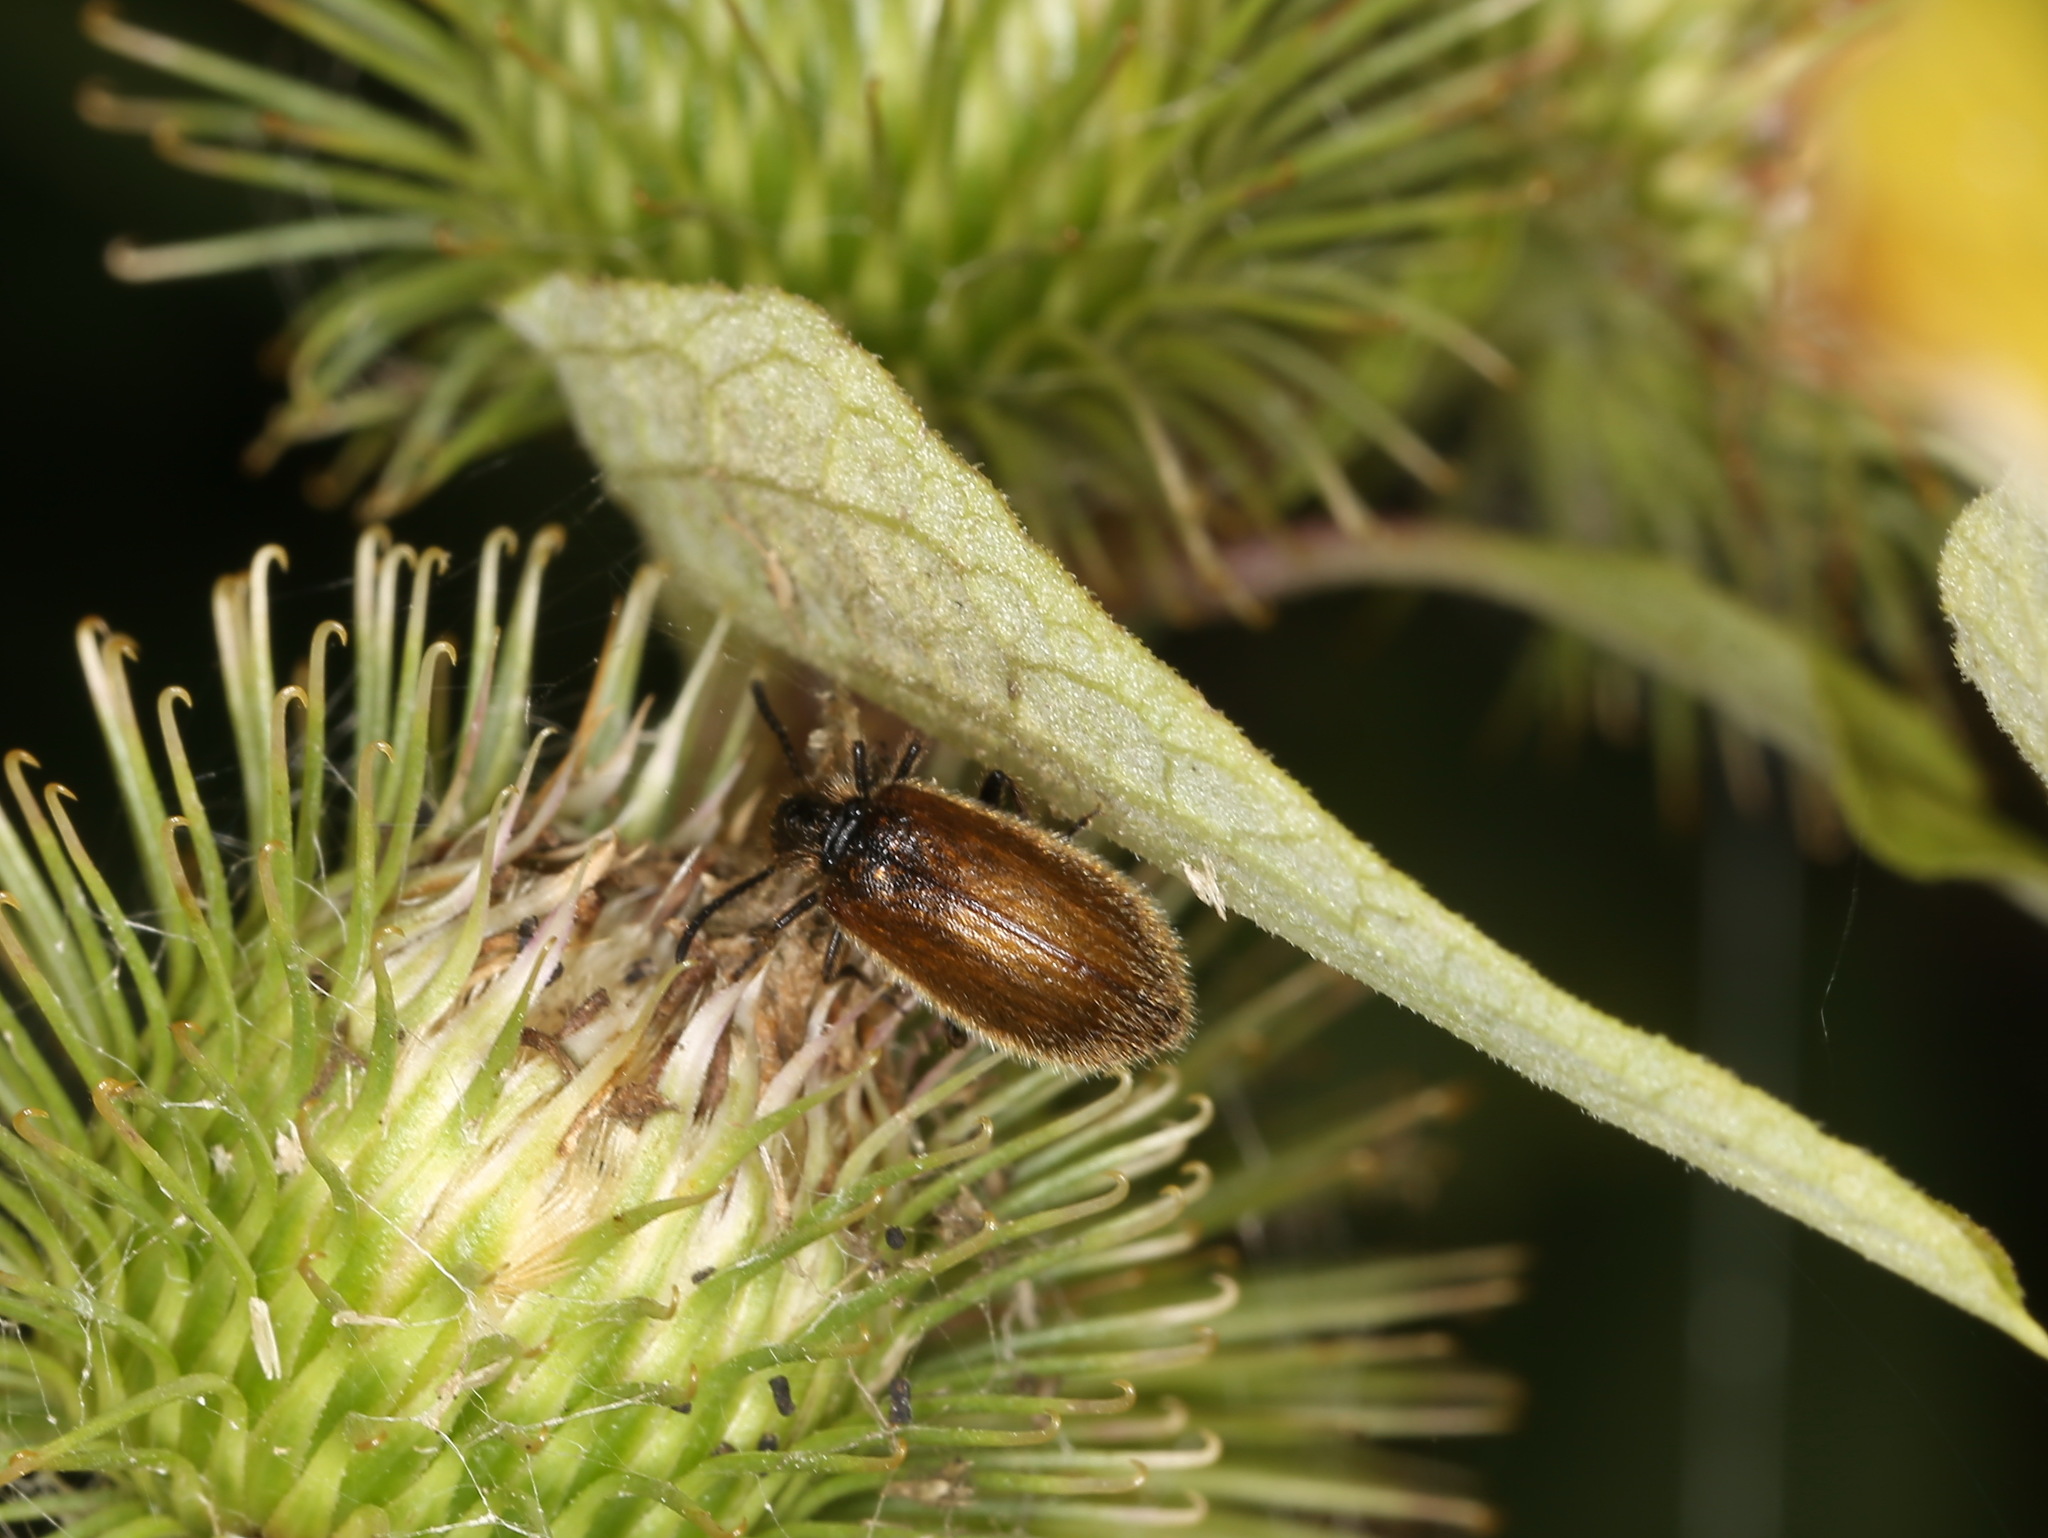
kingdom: Animalia
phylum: Arthropoda
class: Insecta
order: Coleoptera
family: Tenebrionidae
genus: Lagria
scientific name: Lagria hirta
